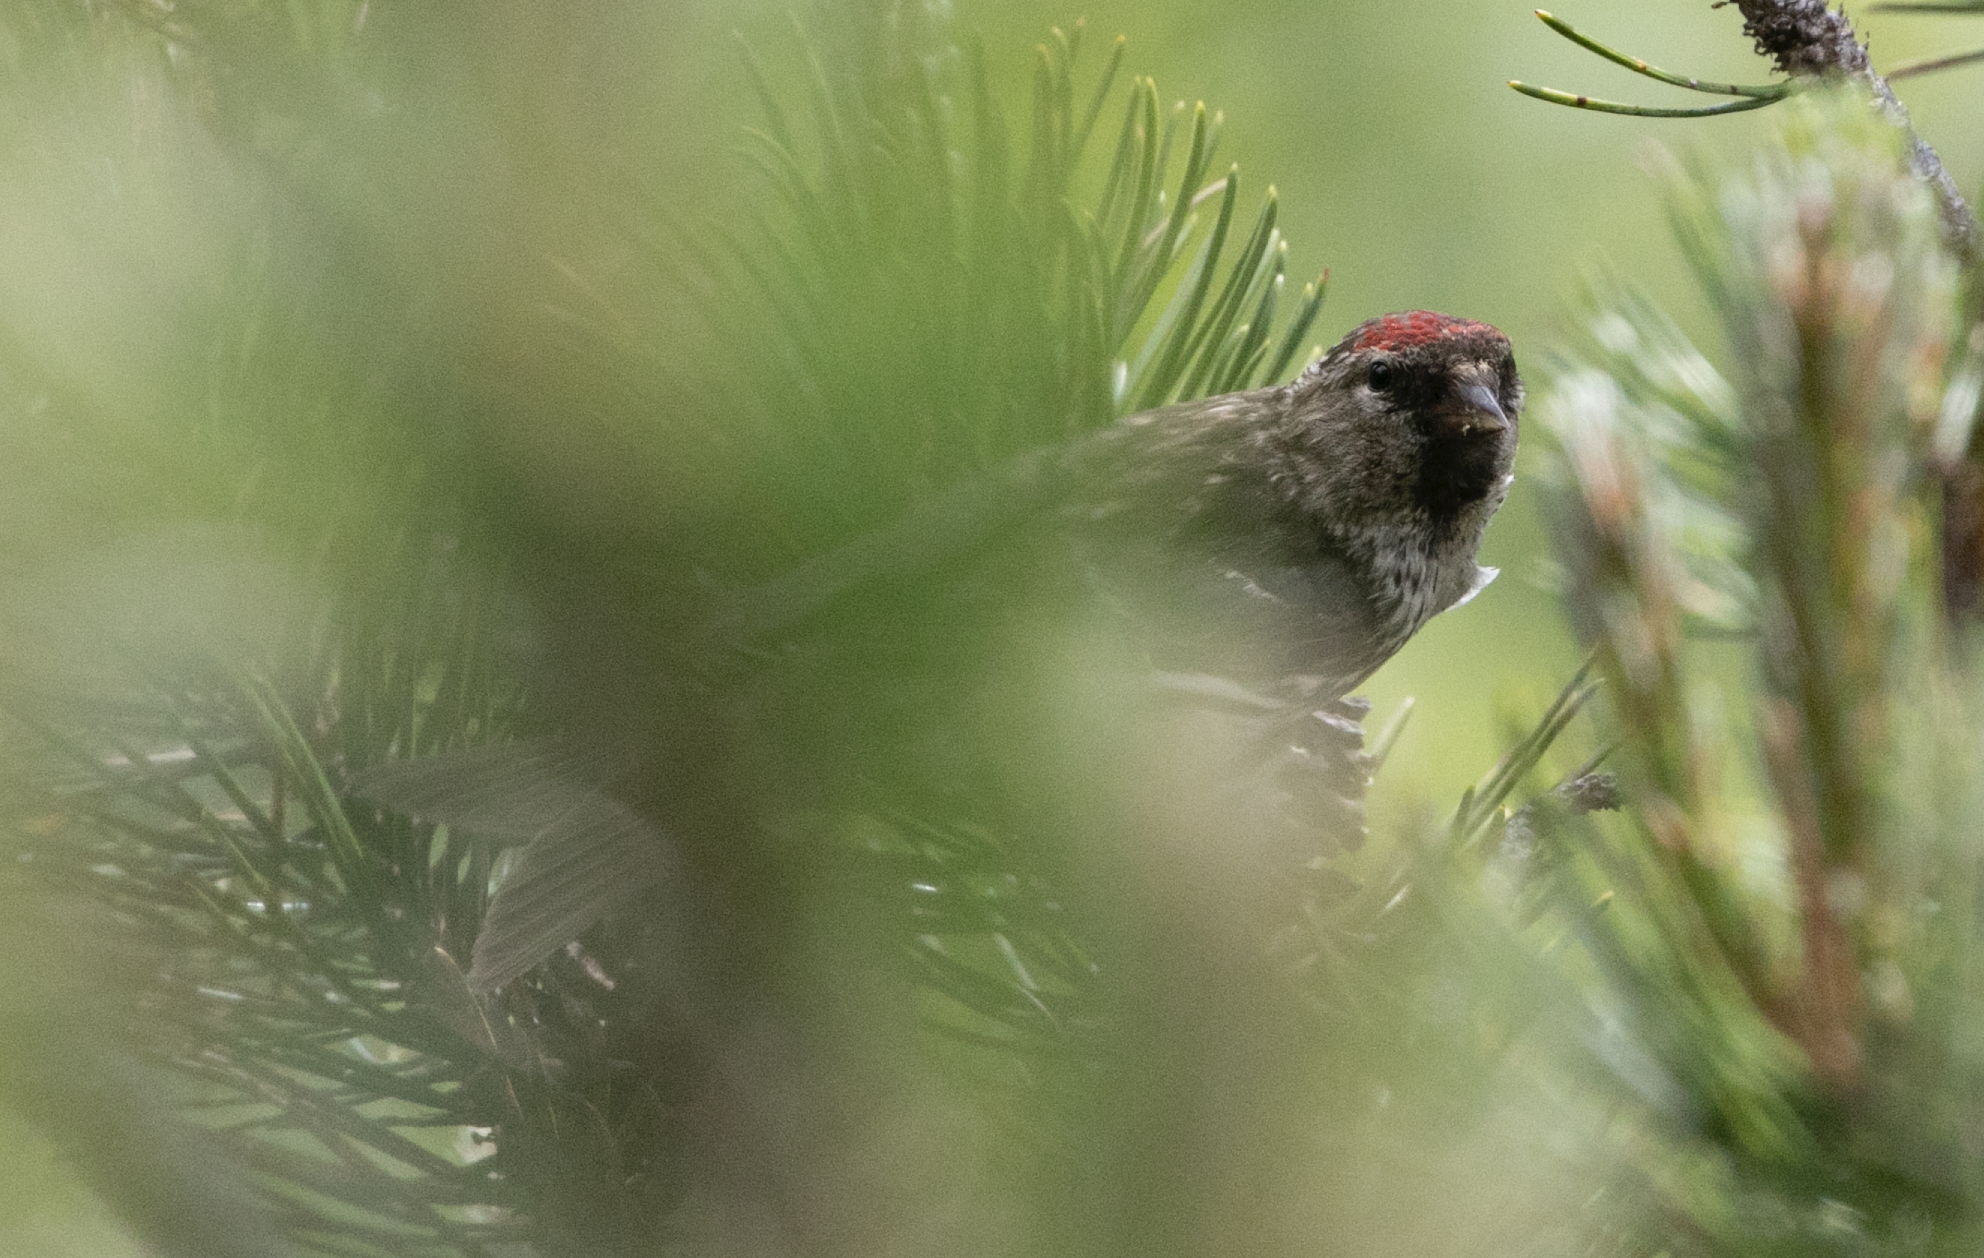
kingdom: Animalia
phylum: Chordata
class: Aves
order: Passeriformes
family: Fringillidae
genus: Acanthis
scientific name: Acanthis flammea
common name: Common redpoll
